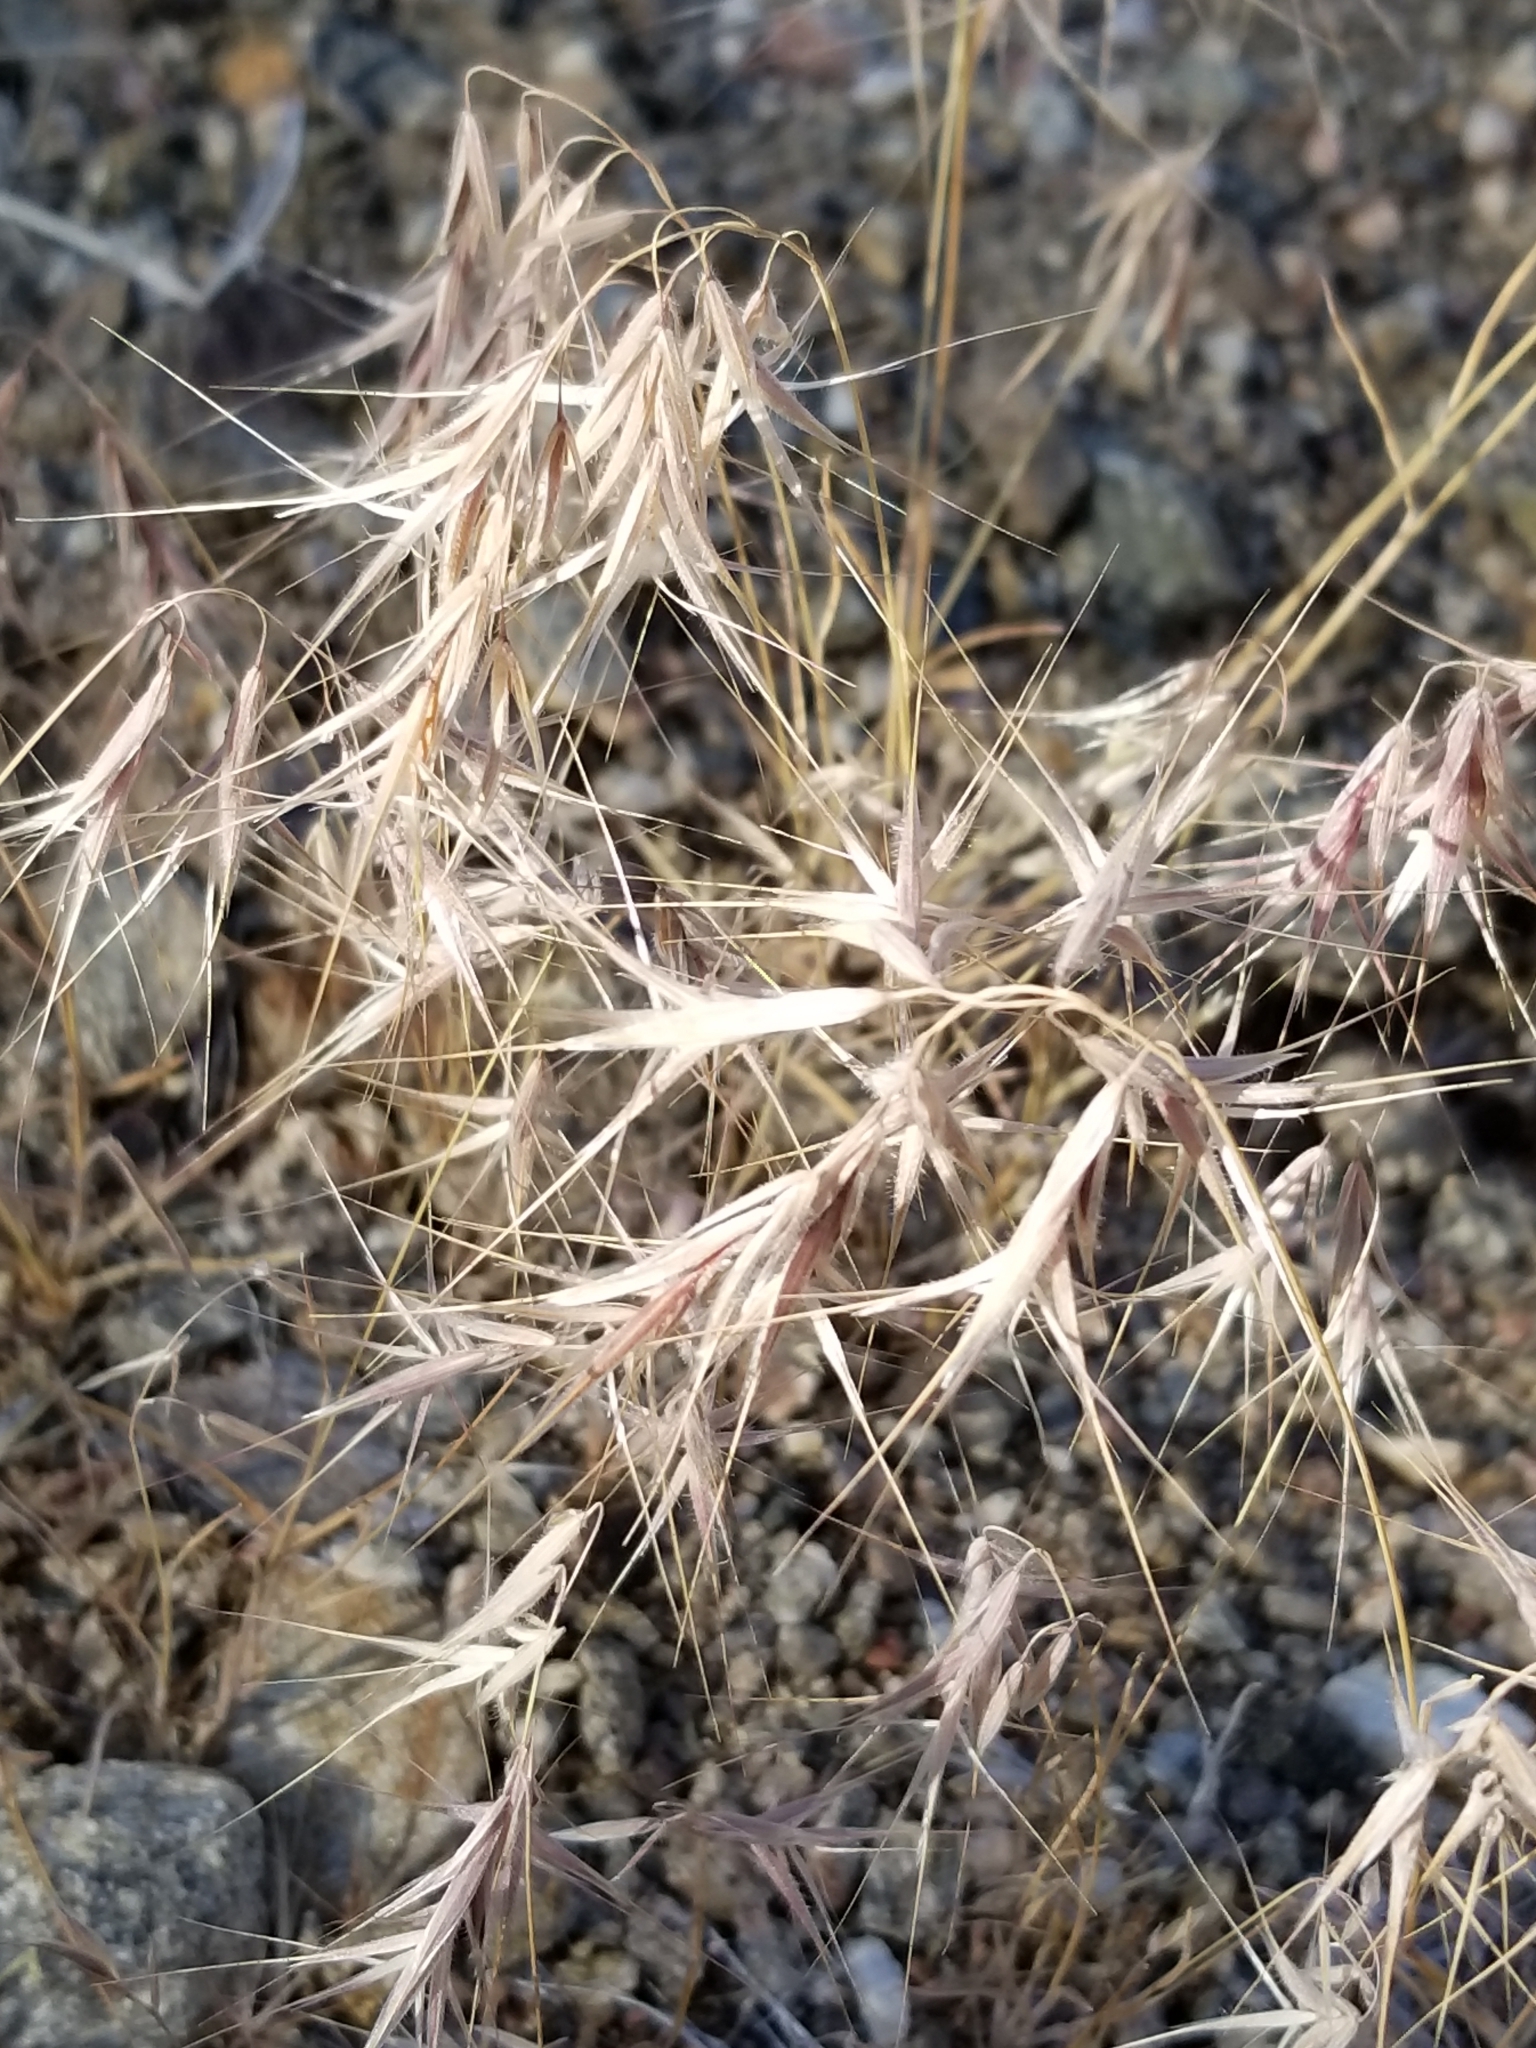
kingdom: Plantae
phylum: Tracheophyta
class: Liliopsida
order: Poales
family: Poaceae
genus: Bromus
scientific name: Bromus tectorum
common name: Cheatgrass
